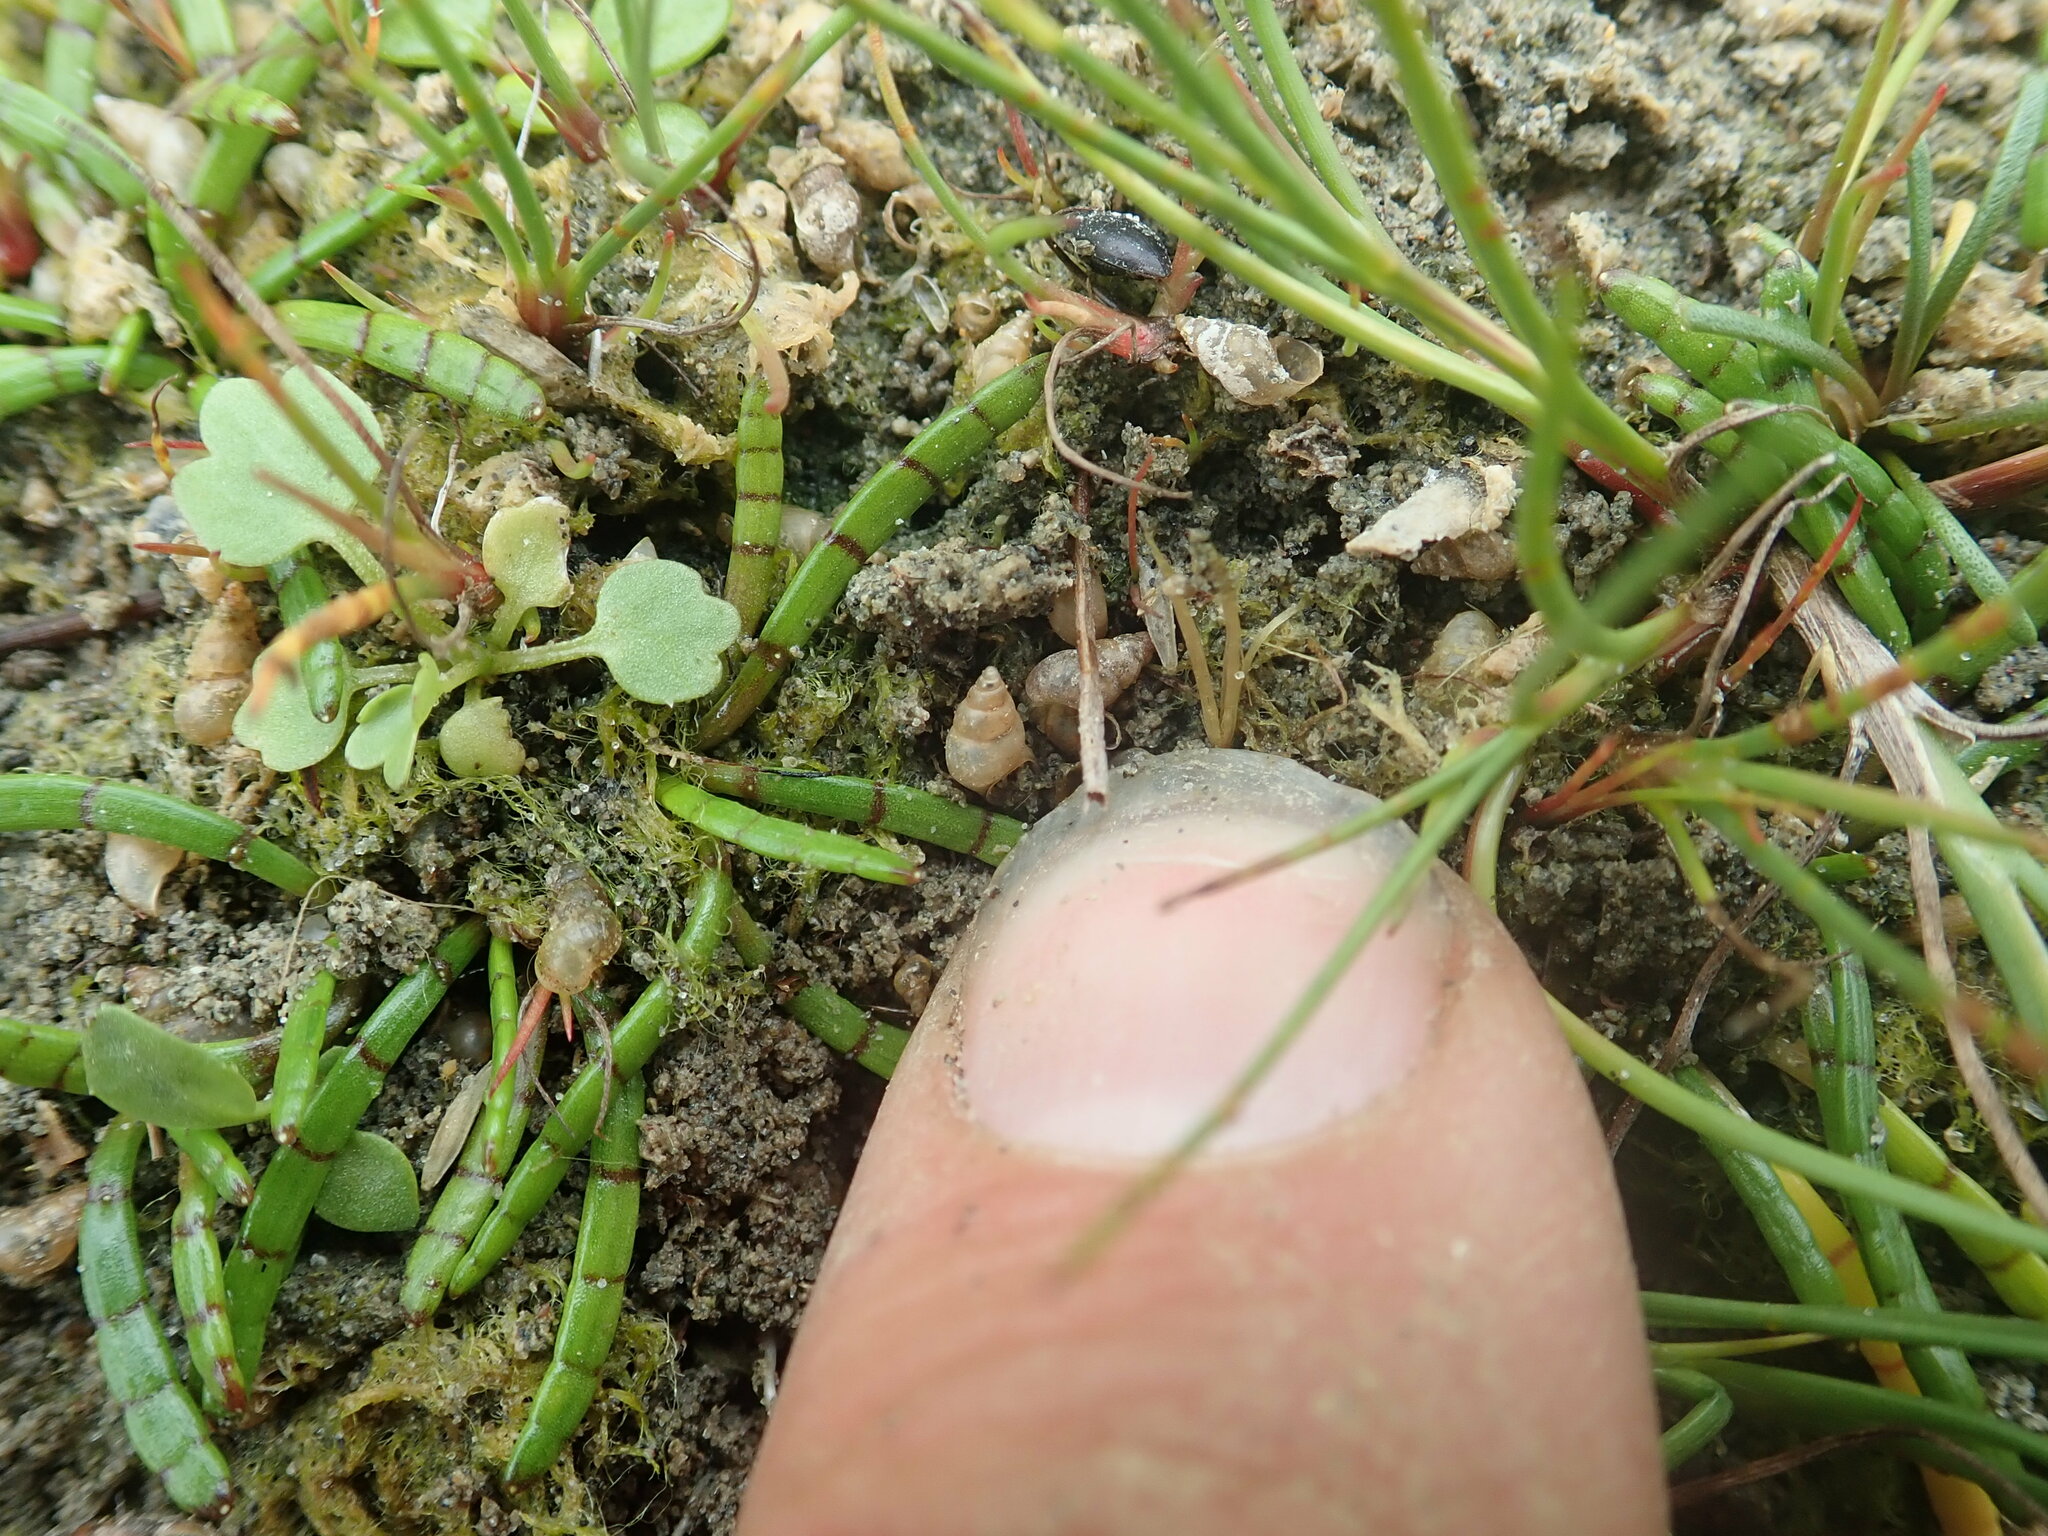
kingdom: Plantae
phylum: Tracheophyta
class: Magnoliopsida
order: Apiales
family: Apiaceae
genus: Apium
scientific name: Apium prostratum
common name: Prostrate marshwort
